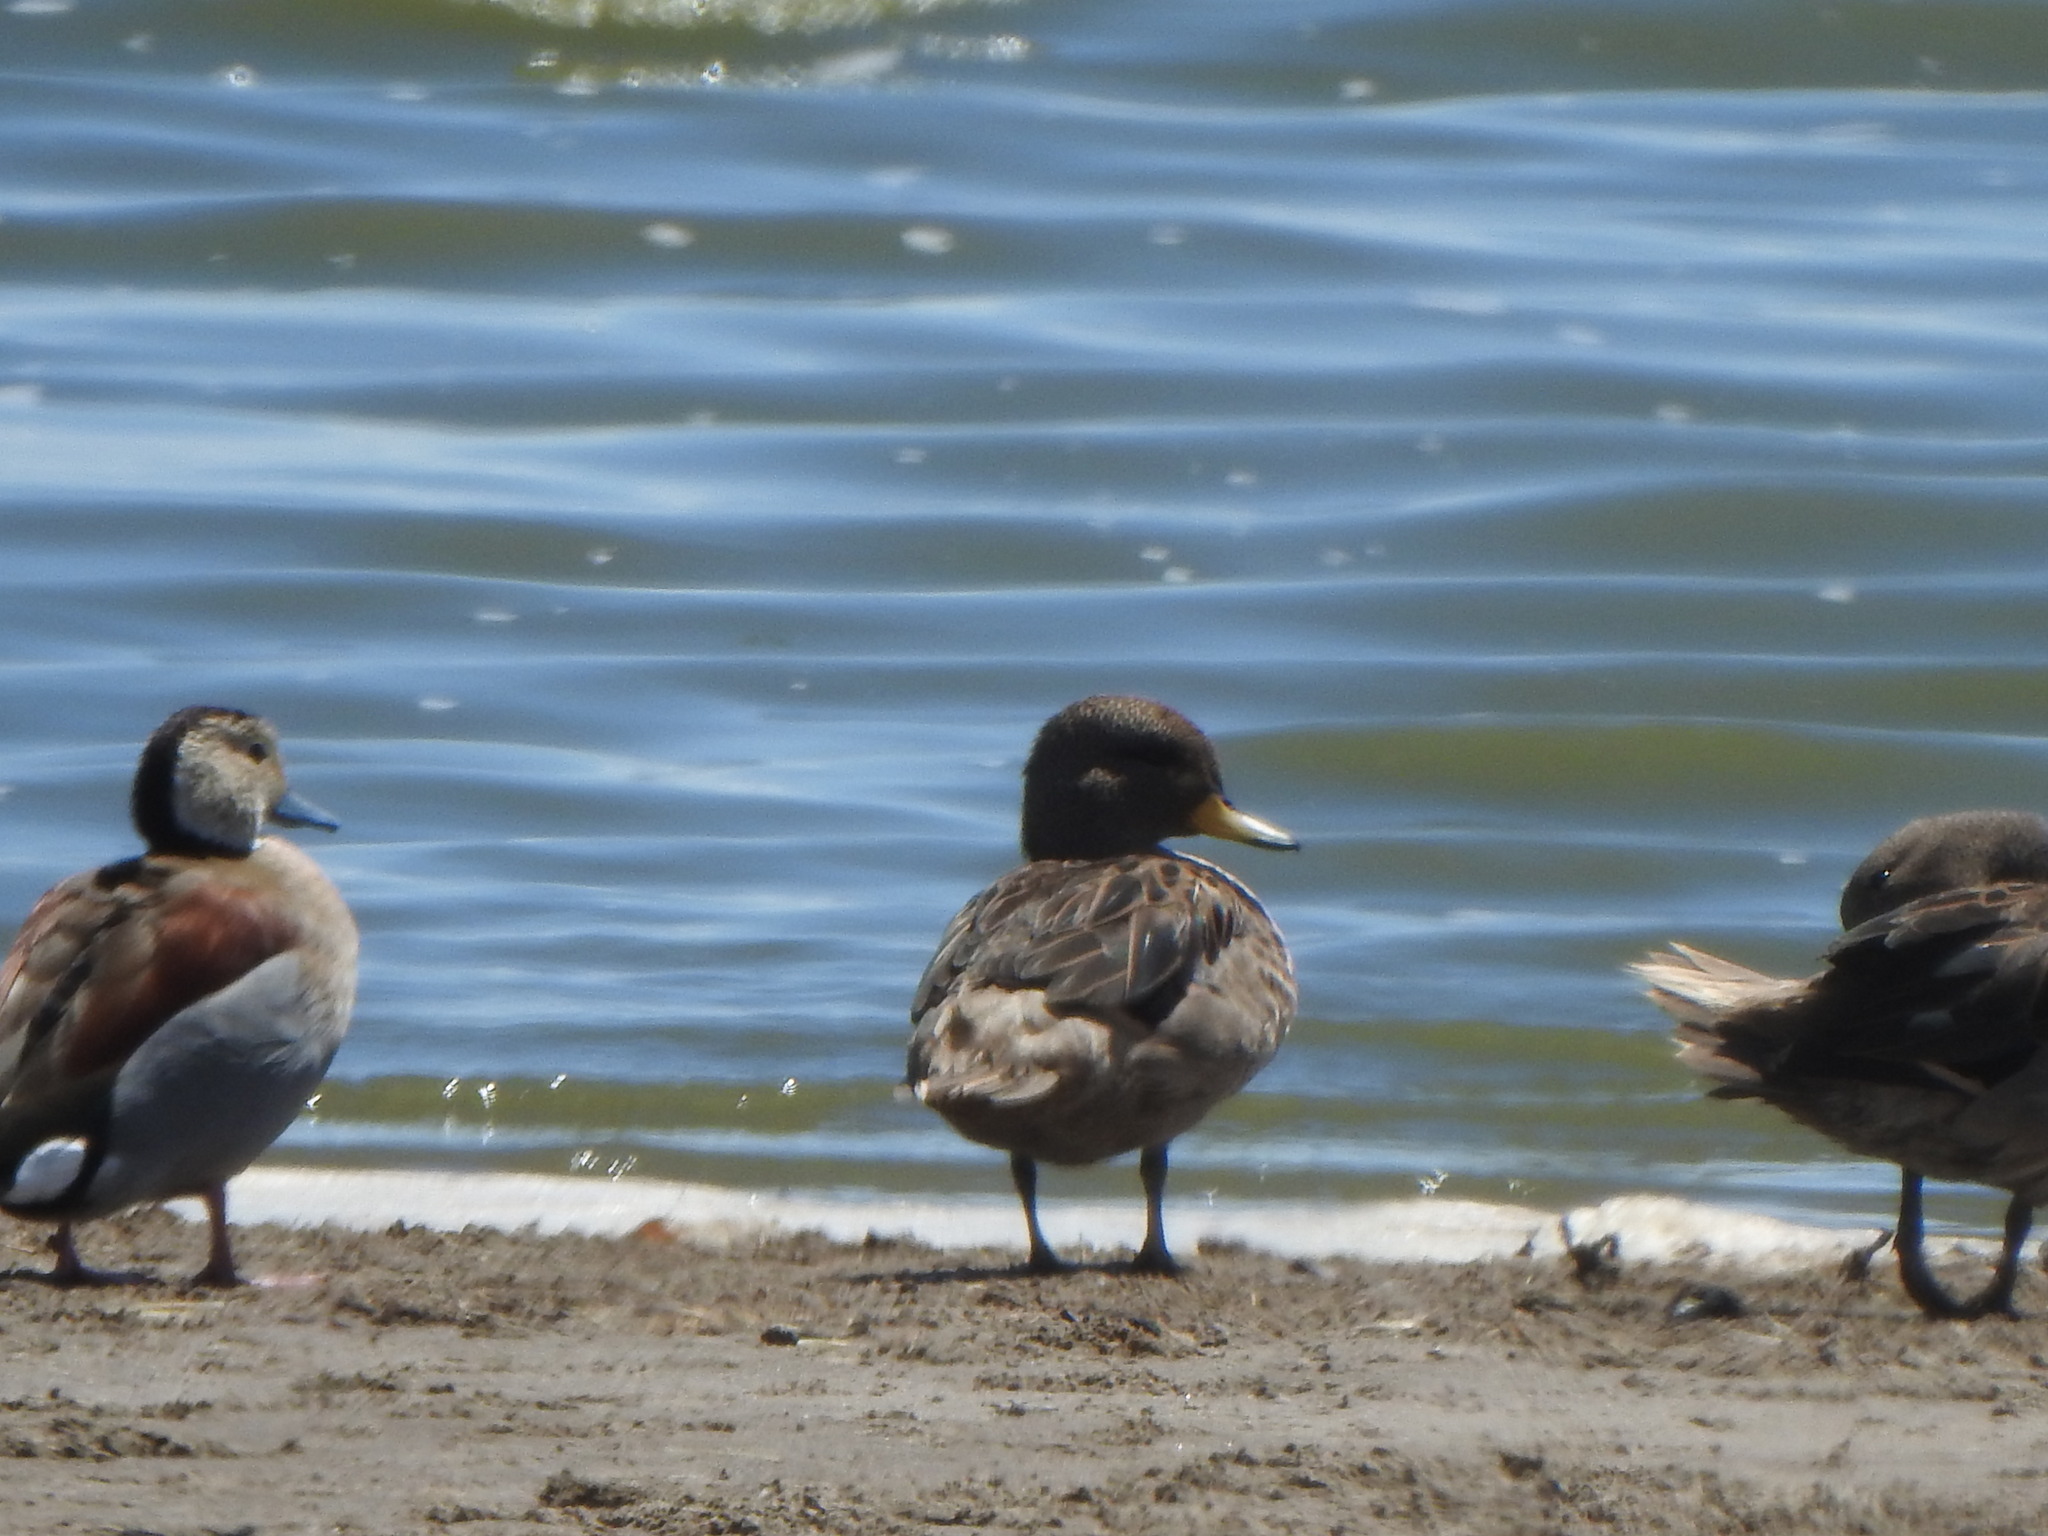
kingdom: Animalia
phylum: Chordata
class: Aves
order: Anseriformes
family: Anatidae
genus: Anas
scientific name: Anas flavirostris
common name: Yellow-billed teal
